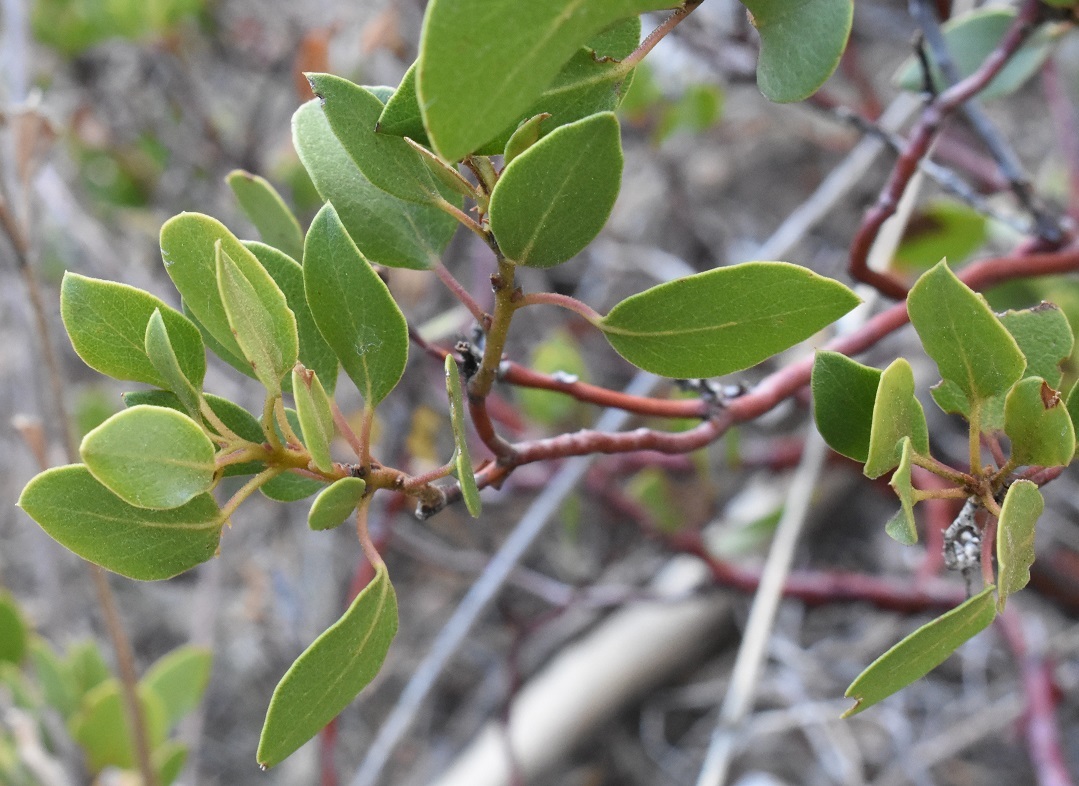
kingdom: Plantae
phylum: Tracheophyta
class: Magnoliopsida
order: Ericales
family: Ericaceae
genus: Arctostaphylos
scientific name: Arctostaphylos patula
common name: Green-leaf manzanita
